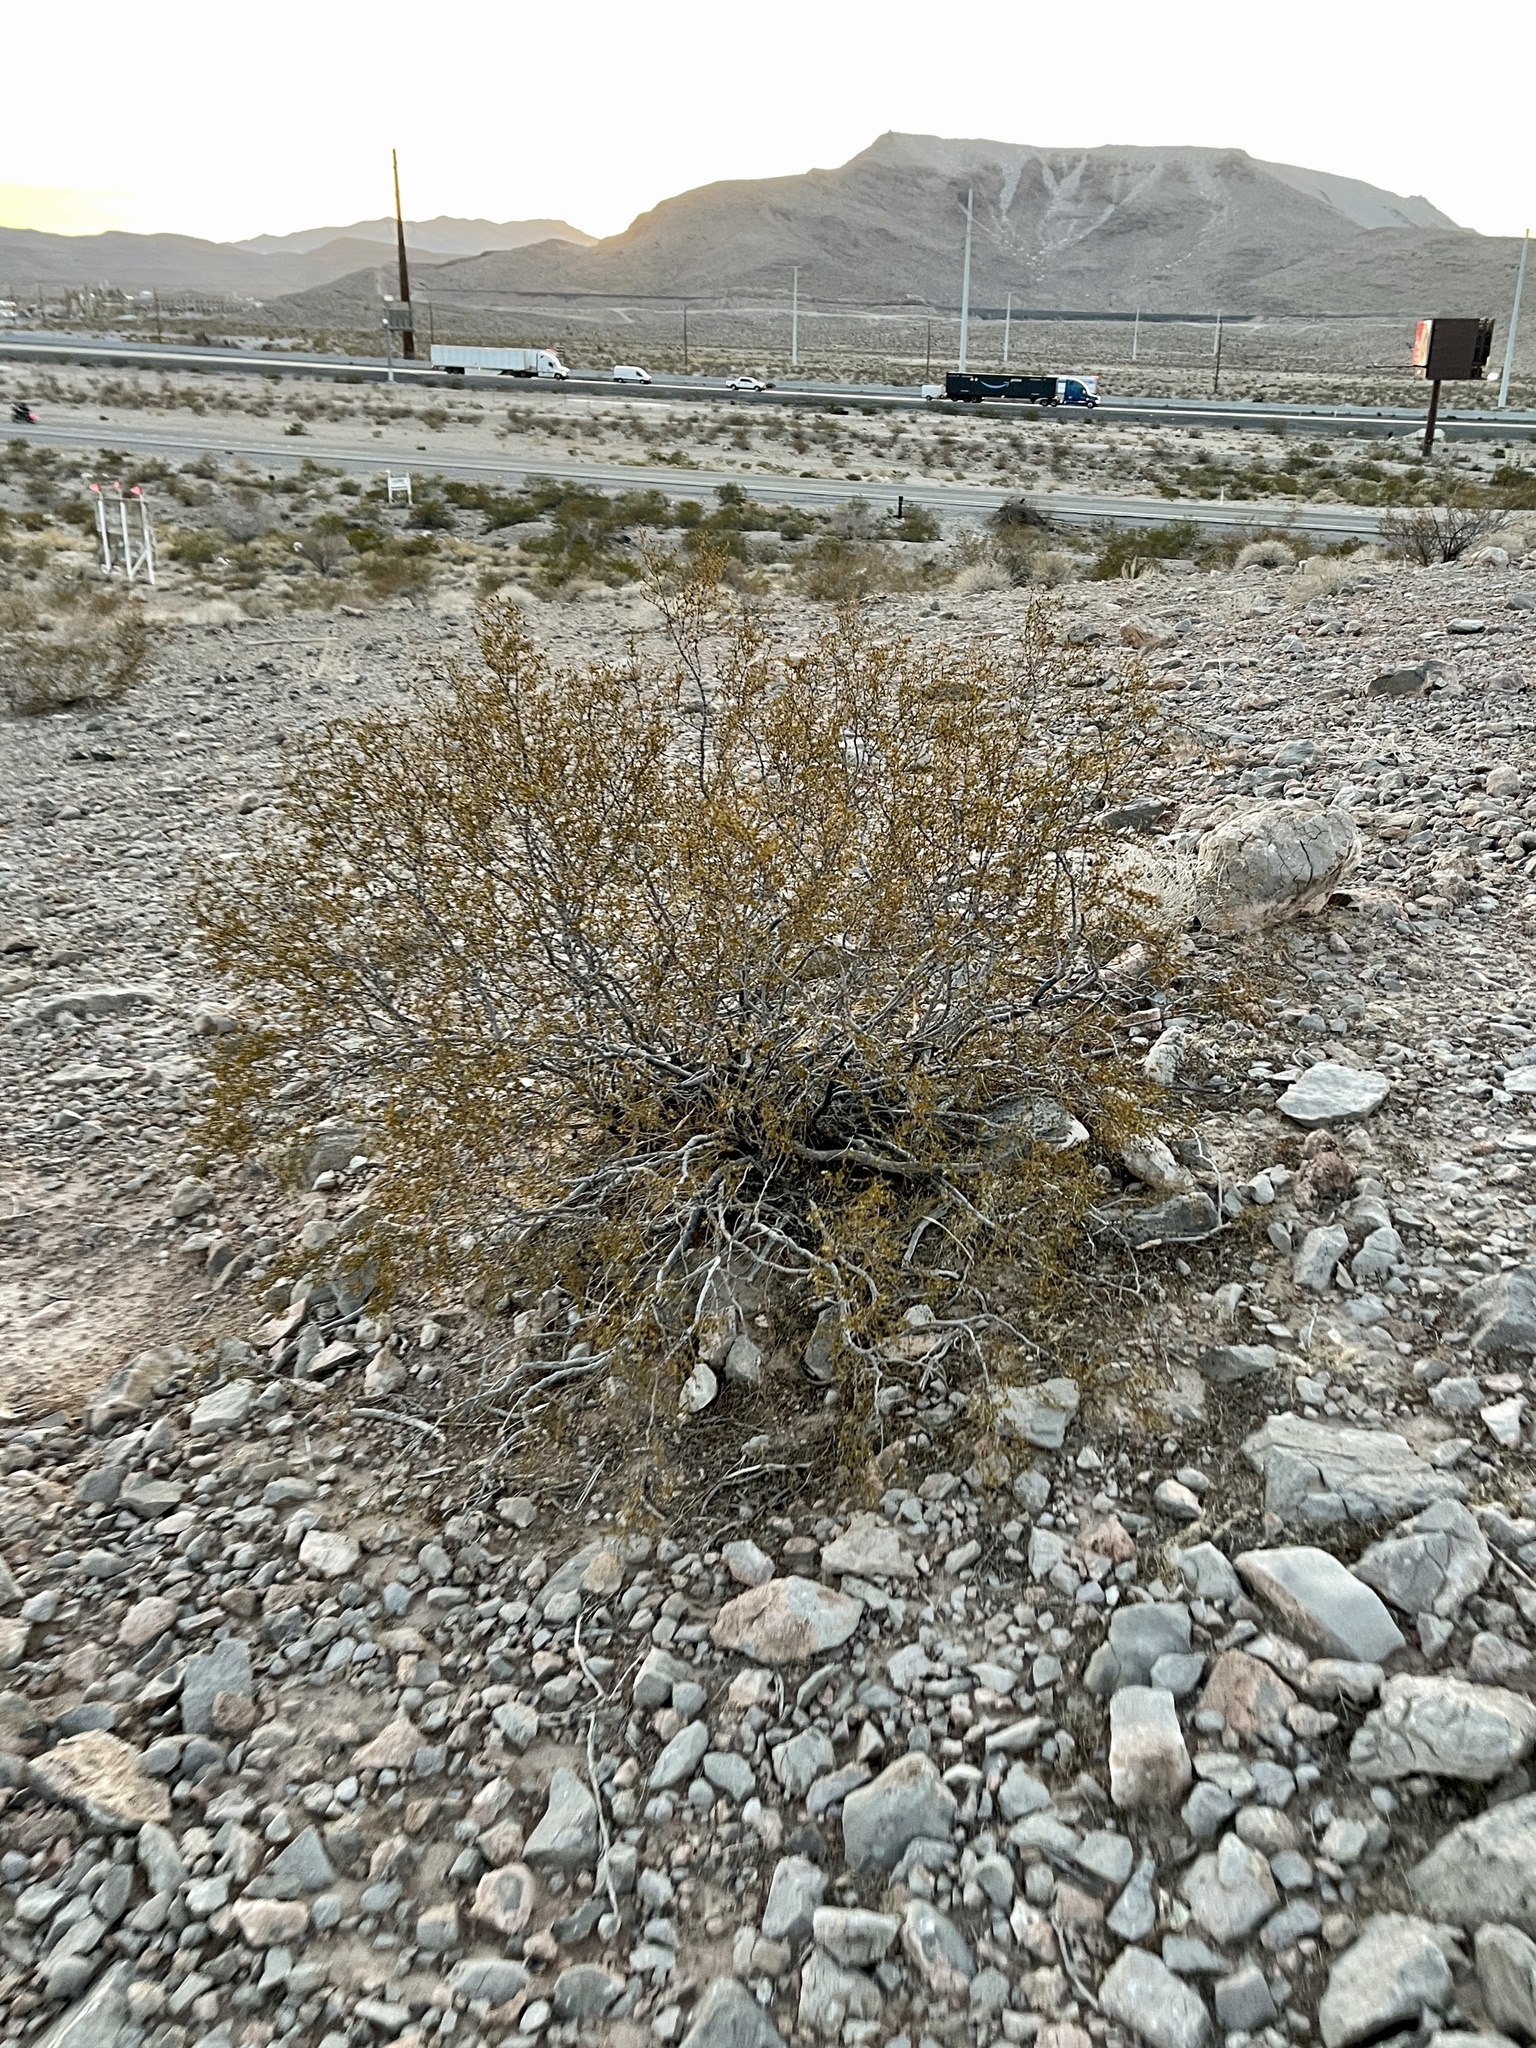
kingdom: Plantae
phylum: Tracheophyta
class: Magnoliopsida
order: Zygophyllales
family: Zygophyllaceae
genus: Larrea
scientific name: Larrea tridentata
